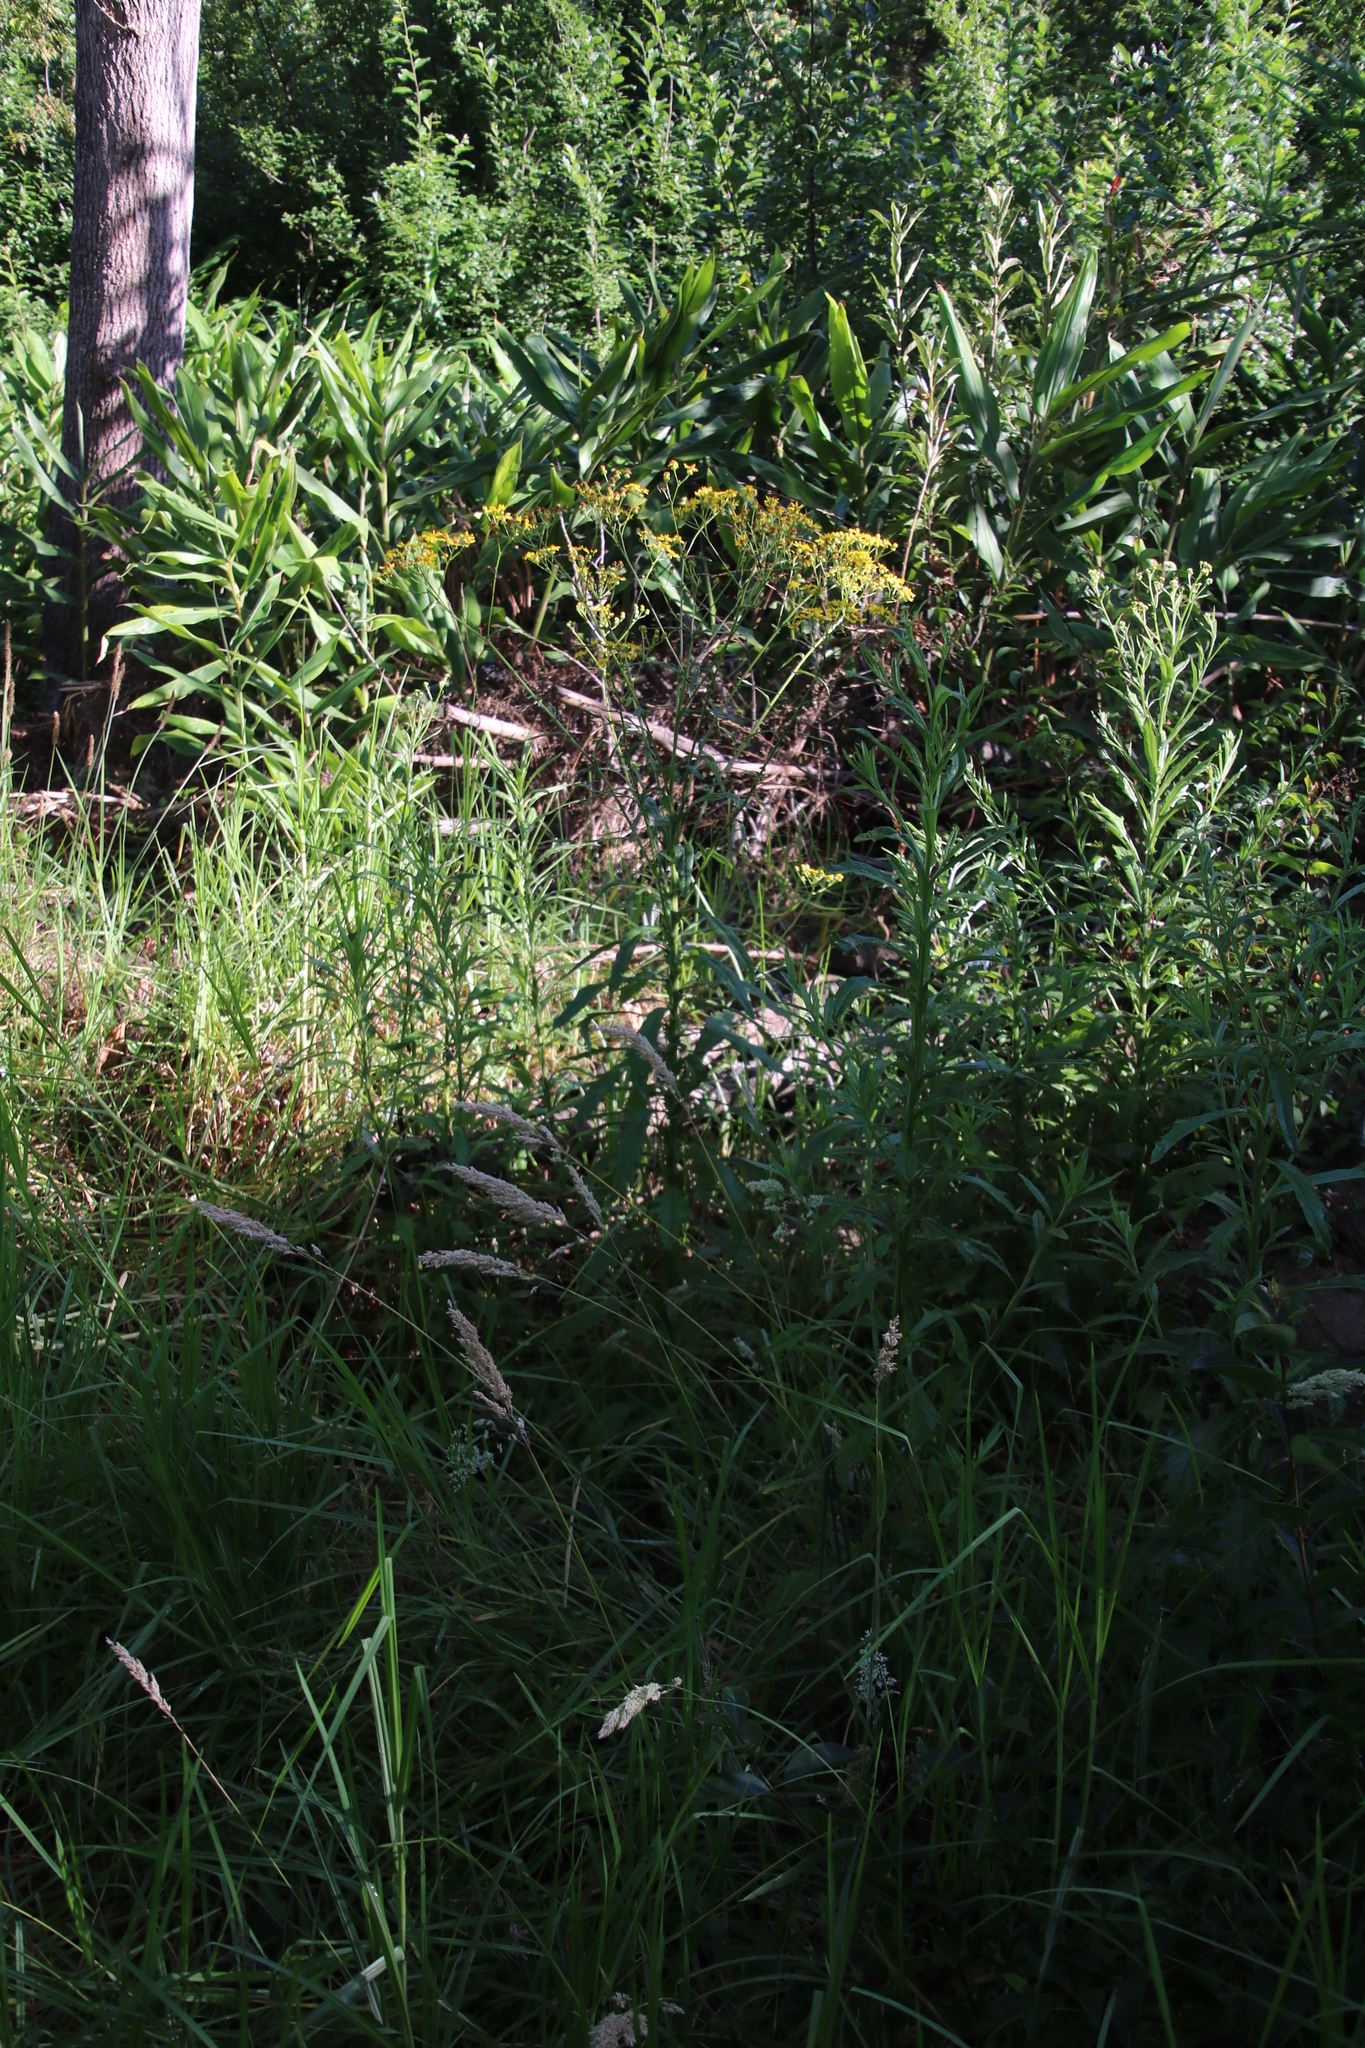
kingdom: Plantae
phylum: Tracheophyta
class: Magnoliopsida
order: Asterales
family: Asteraceae
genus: Senecio
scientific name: Senecio pterophorus
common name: Shoddy ragwort
